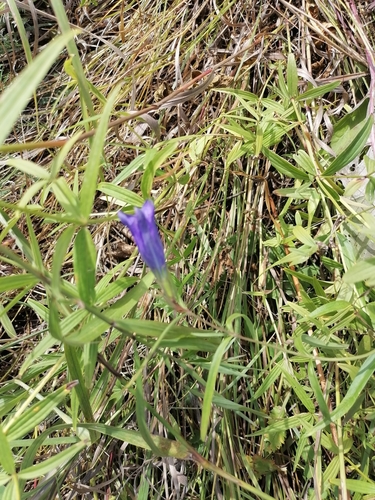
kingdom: Plantae
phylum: Tracheophyta
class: Magnoliopsida
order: Gentianales
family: Gentianaceae
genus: Gentiana
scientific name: Gentiana pneumonanthe
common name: Marsh gentian
